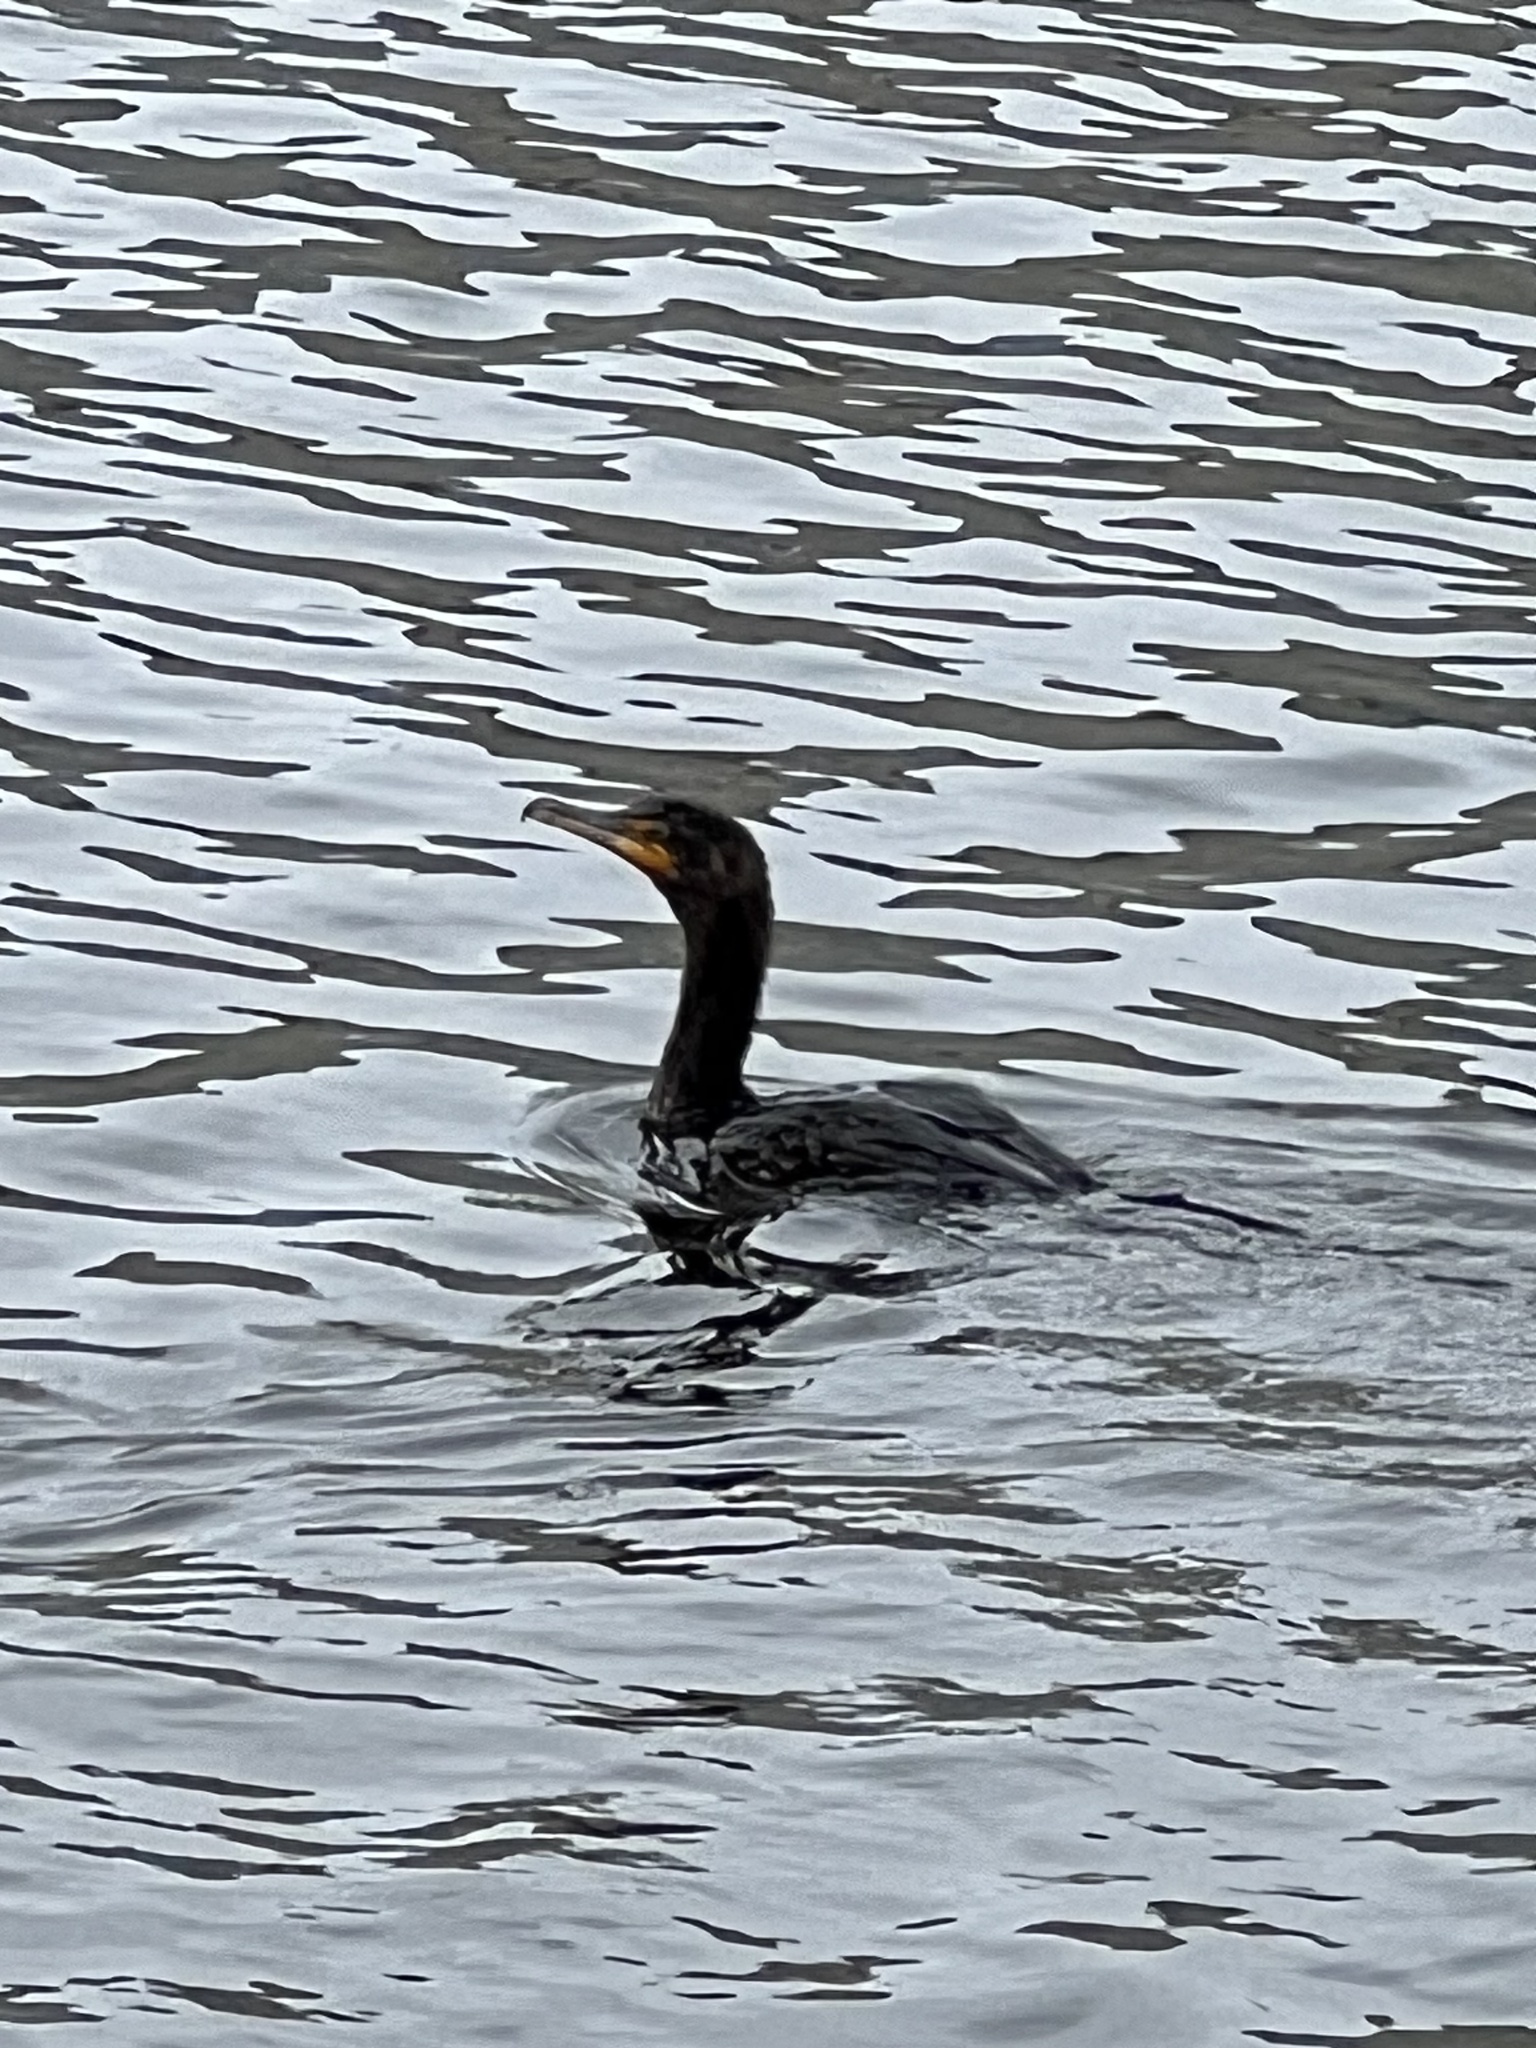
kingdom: Animalia
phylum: Chordata
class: Aves
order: Suliformes
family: Phalacrocoracidae
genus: Phalacrocorax
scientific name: Phalacrocorax auritus
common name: Double-crested cormorant
